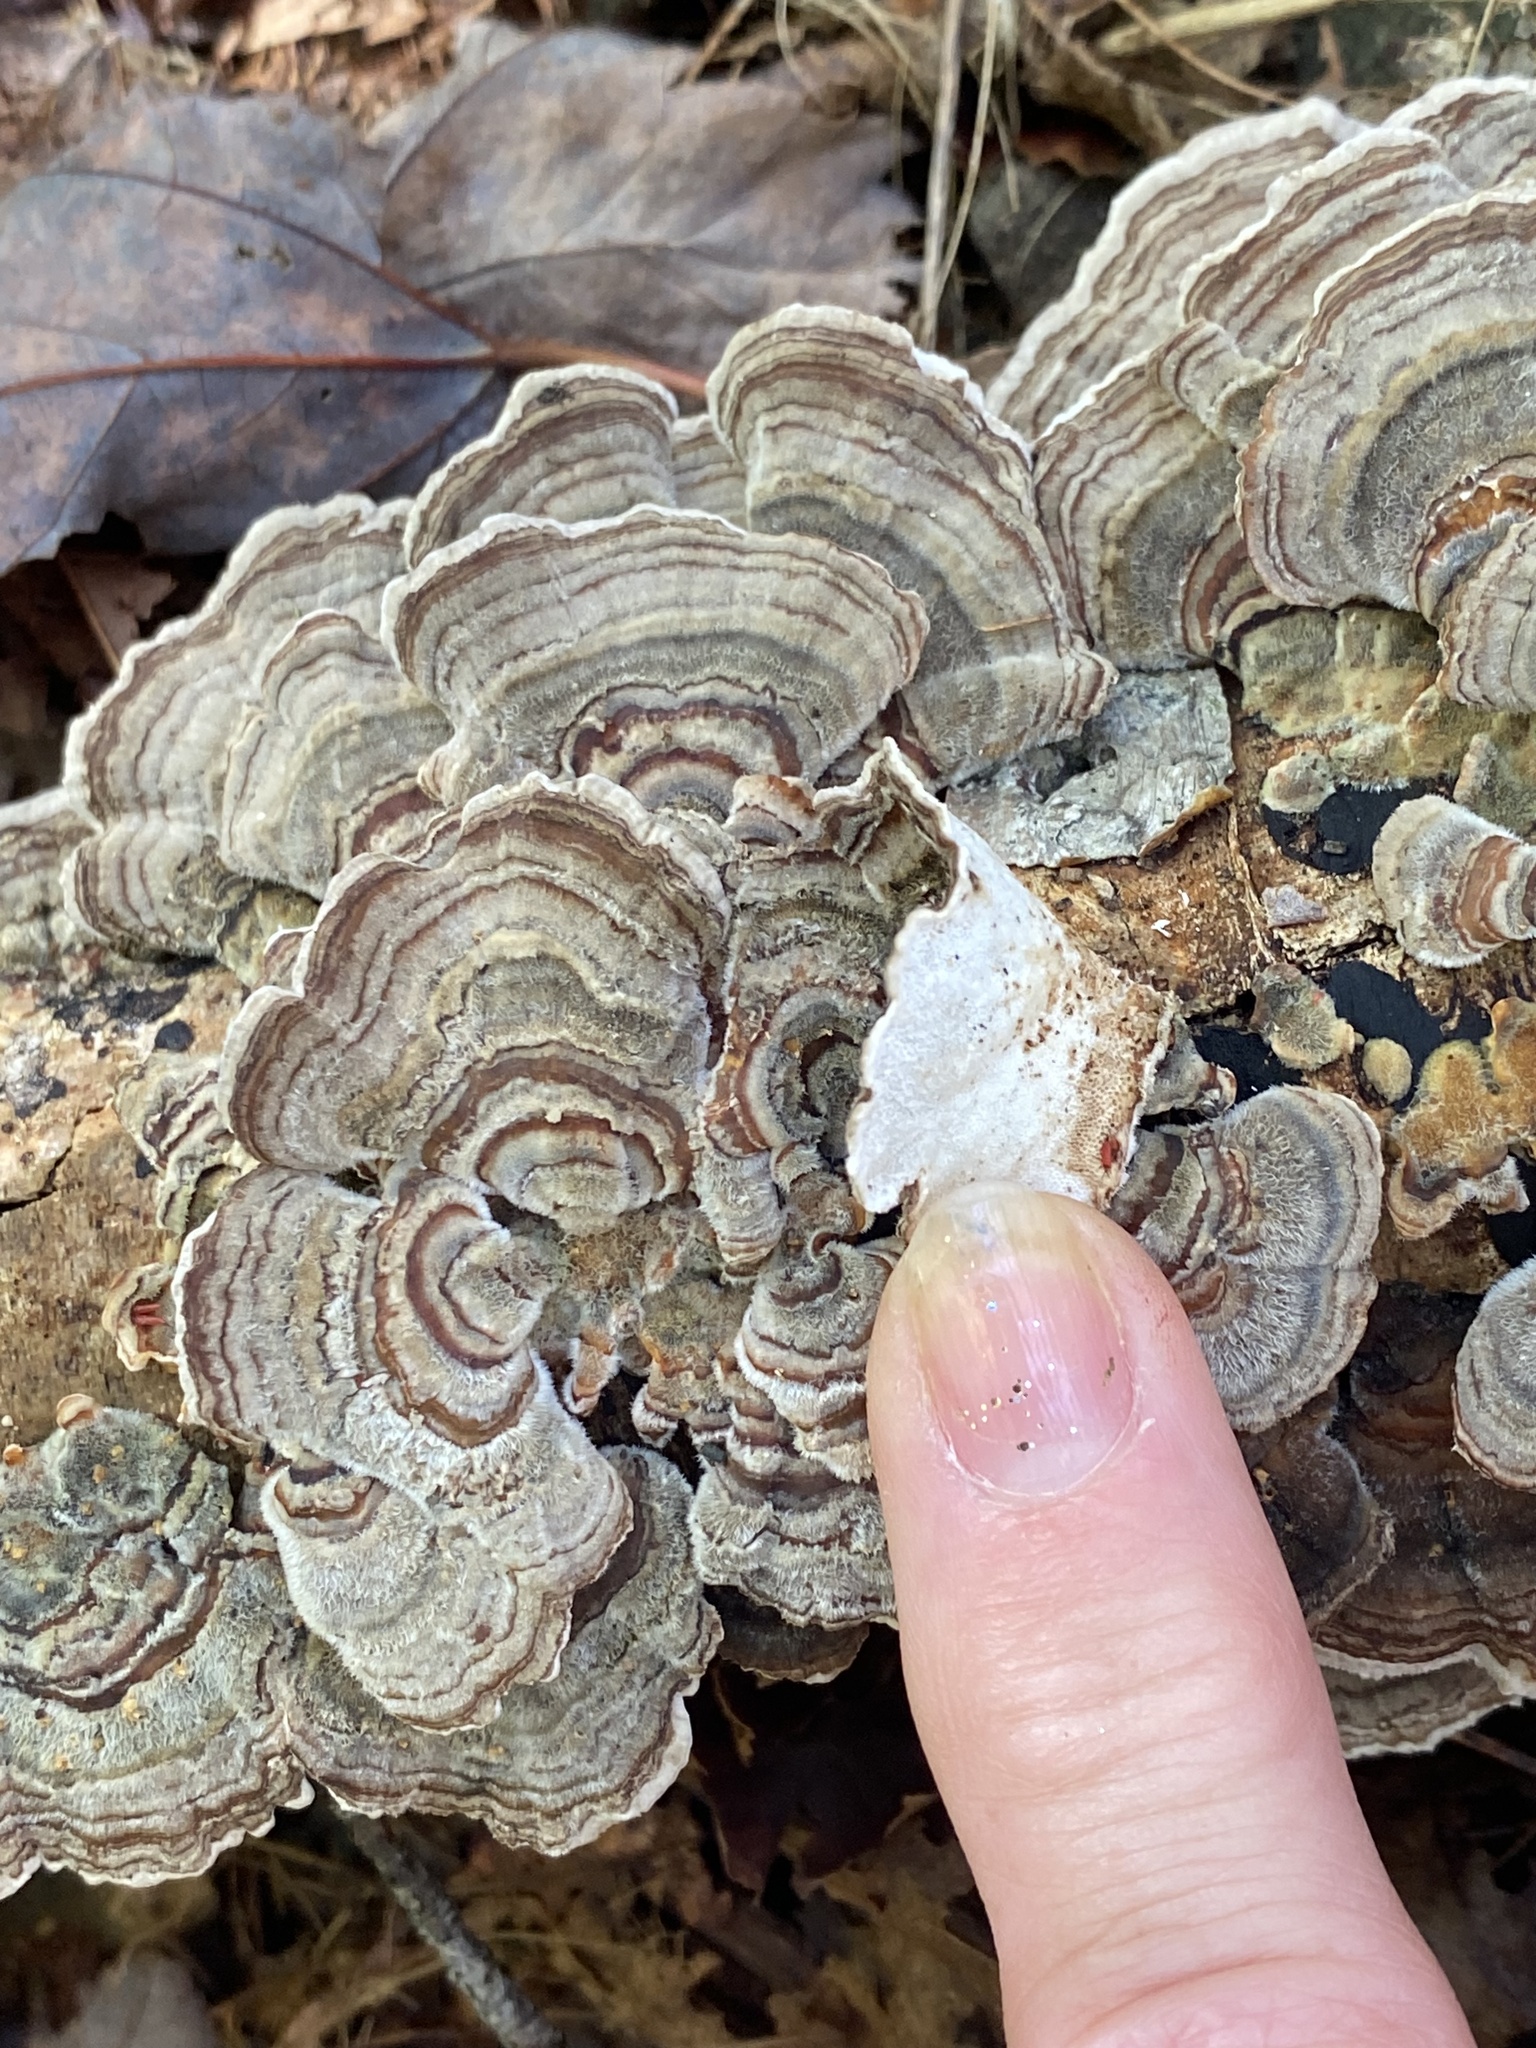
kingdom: Fungi
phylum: Basidiomycota
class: Agaricomycetes
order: Polyporales
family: Polyporaceae
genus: Trametes
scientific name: Trametes versicolor
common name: Turkeytail
